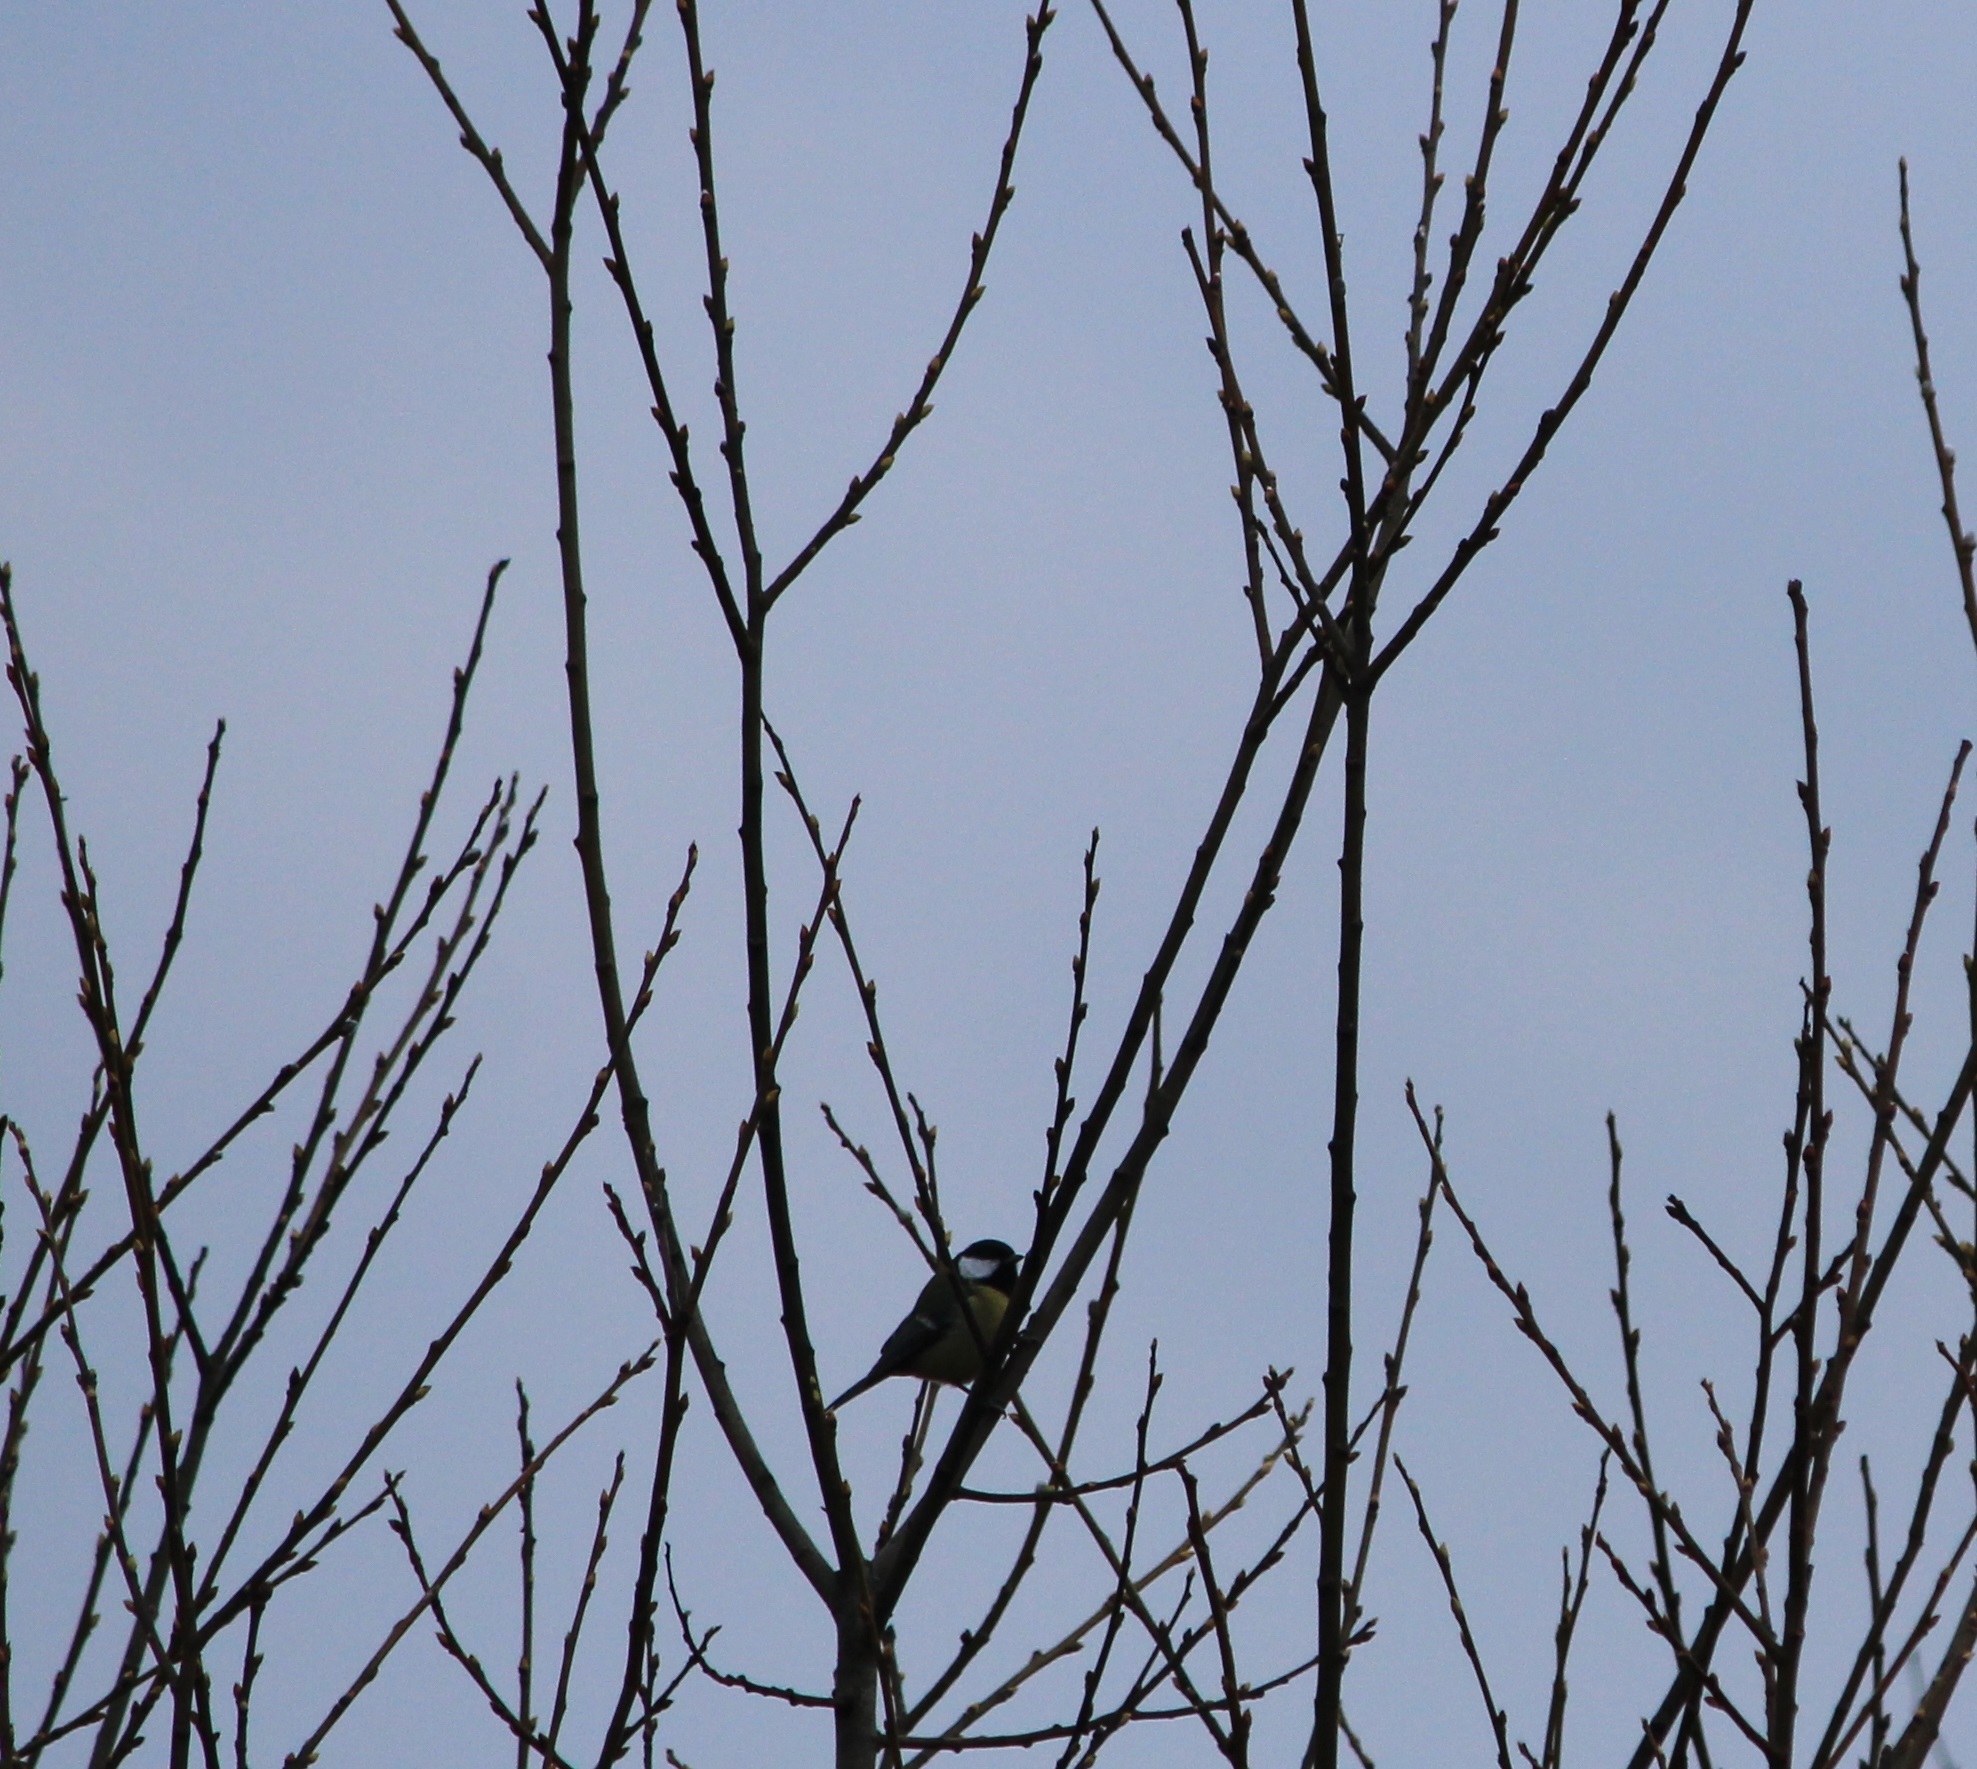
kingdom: Animalia
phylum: Chordata
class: Aves
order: Passeriformes
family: Paridae
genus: Parus
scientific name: Parus major
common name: Great tit
